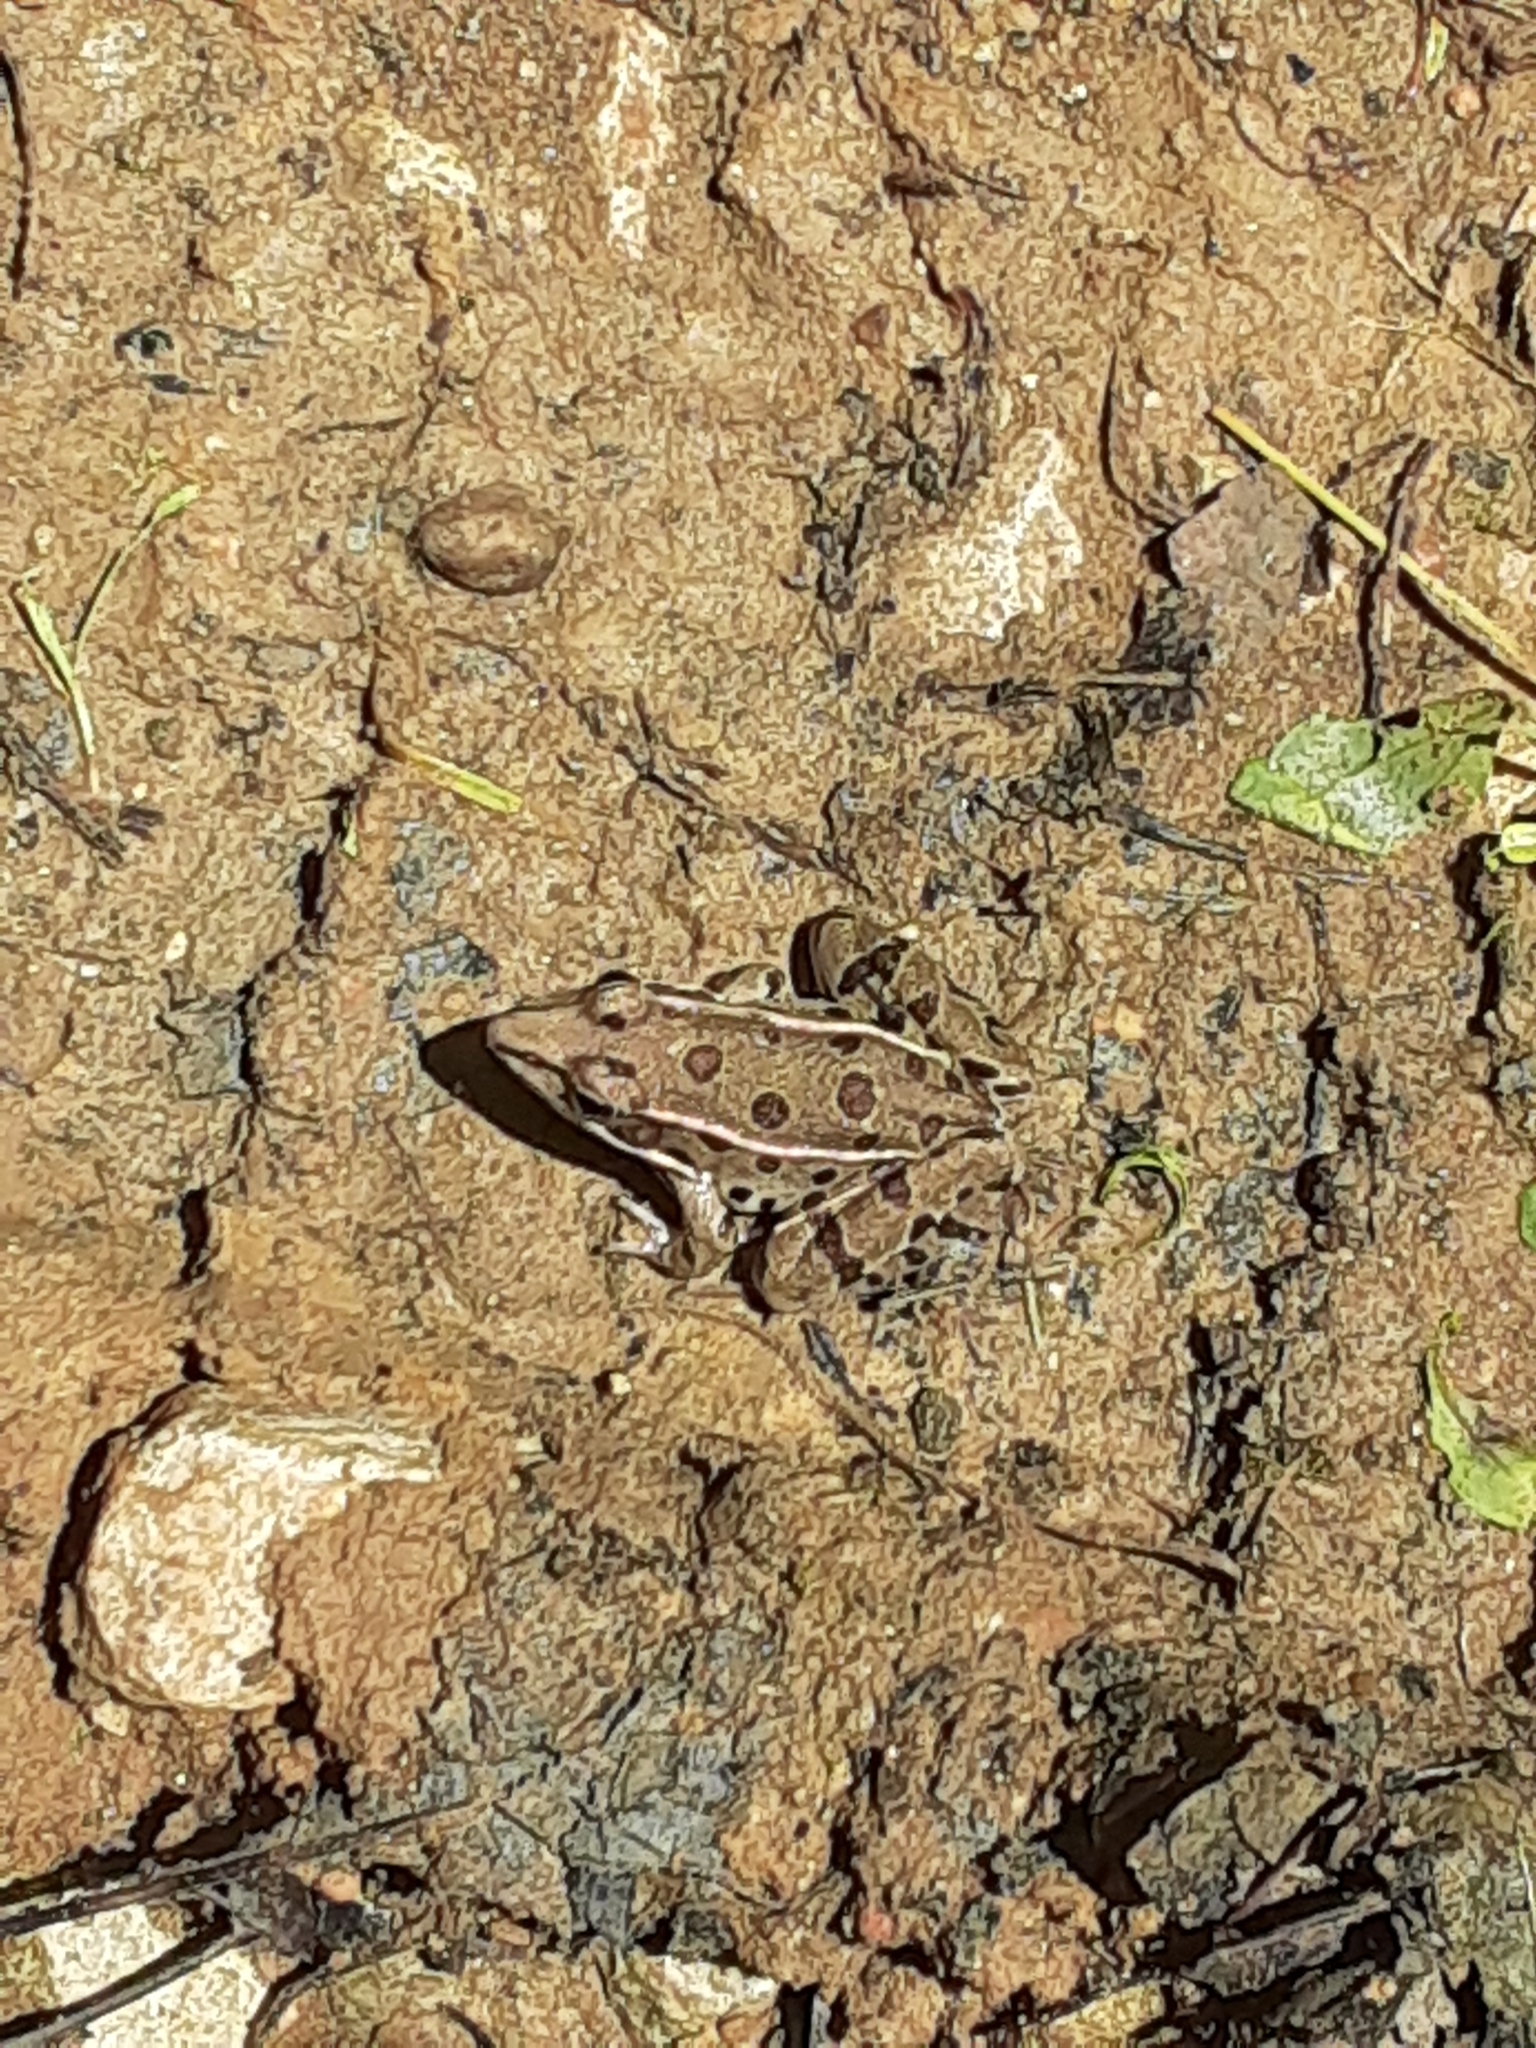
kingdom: Animalia
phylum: Chordata
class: Amphibia
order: Anura
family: Ranidae
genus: Lithobates
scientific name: Lithobates sphenocephalus
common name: Southern leopard frog
